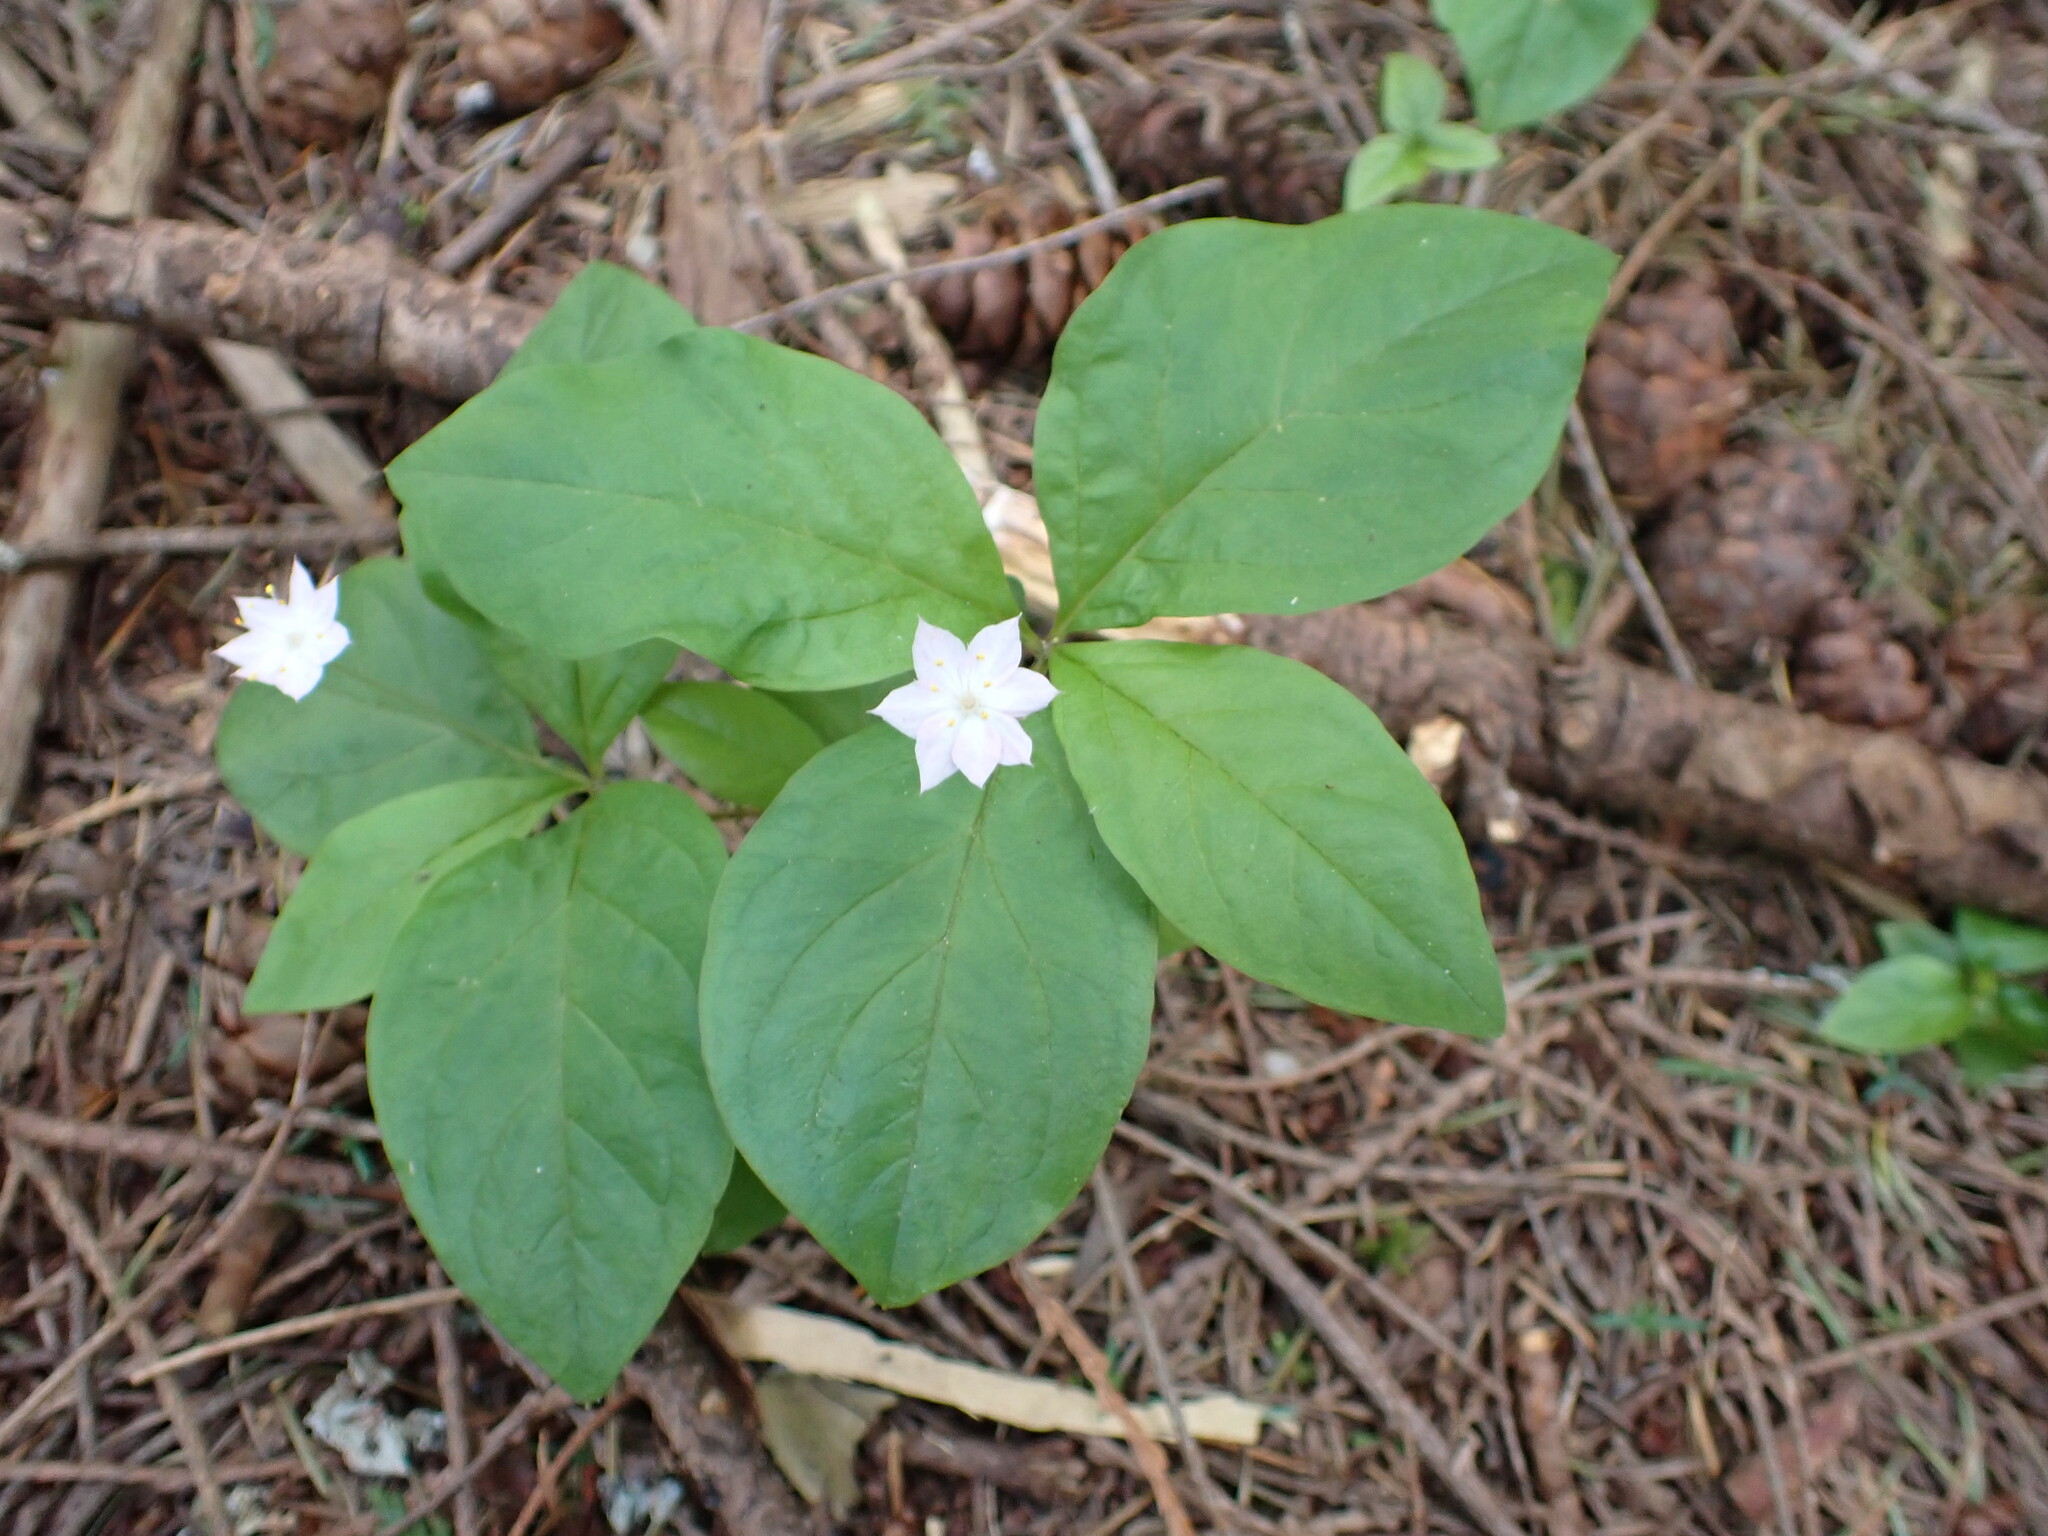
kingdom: Plantae
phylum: Tracheophyta
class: Magnoliopsida
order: Ericales
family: Primulaceae
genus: Lysimachia
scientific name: Lysimachia latifolia
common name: Pacific starflower
